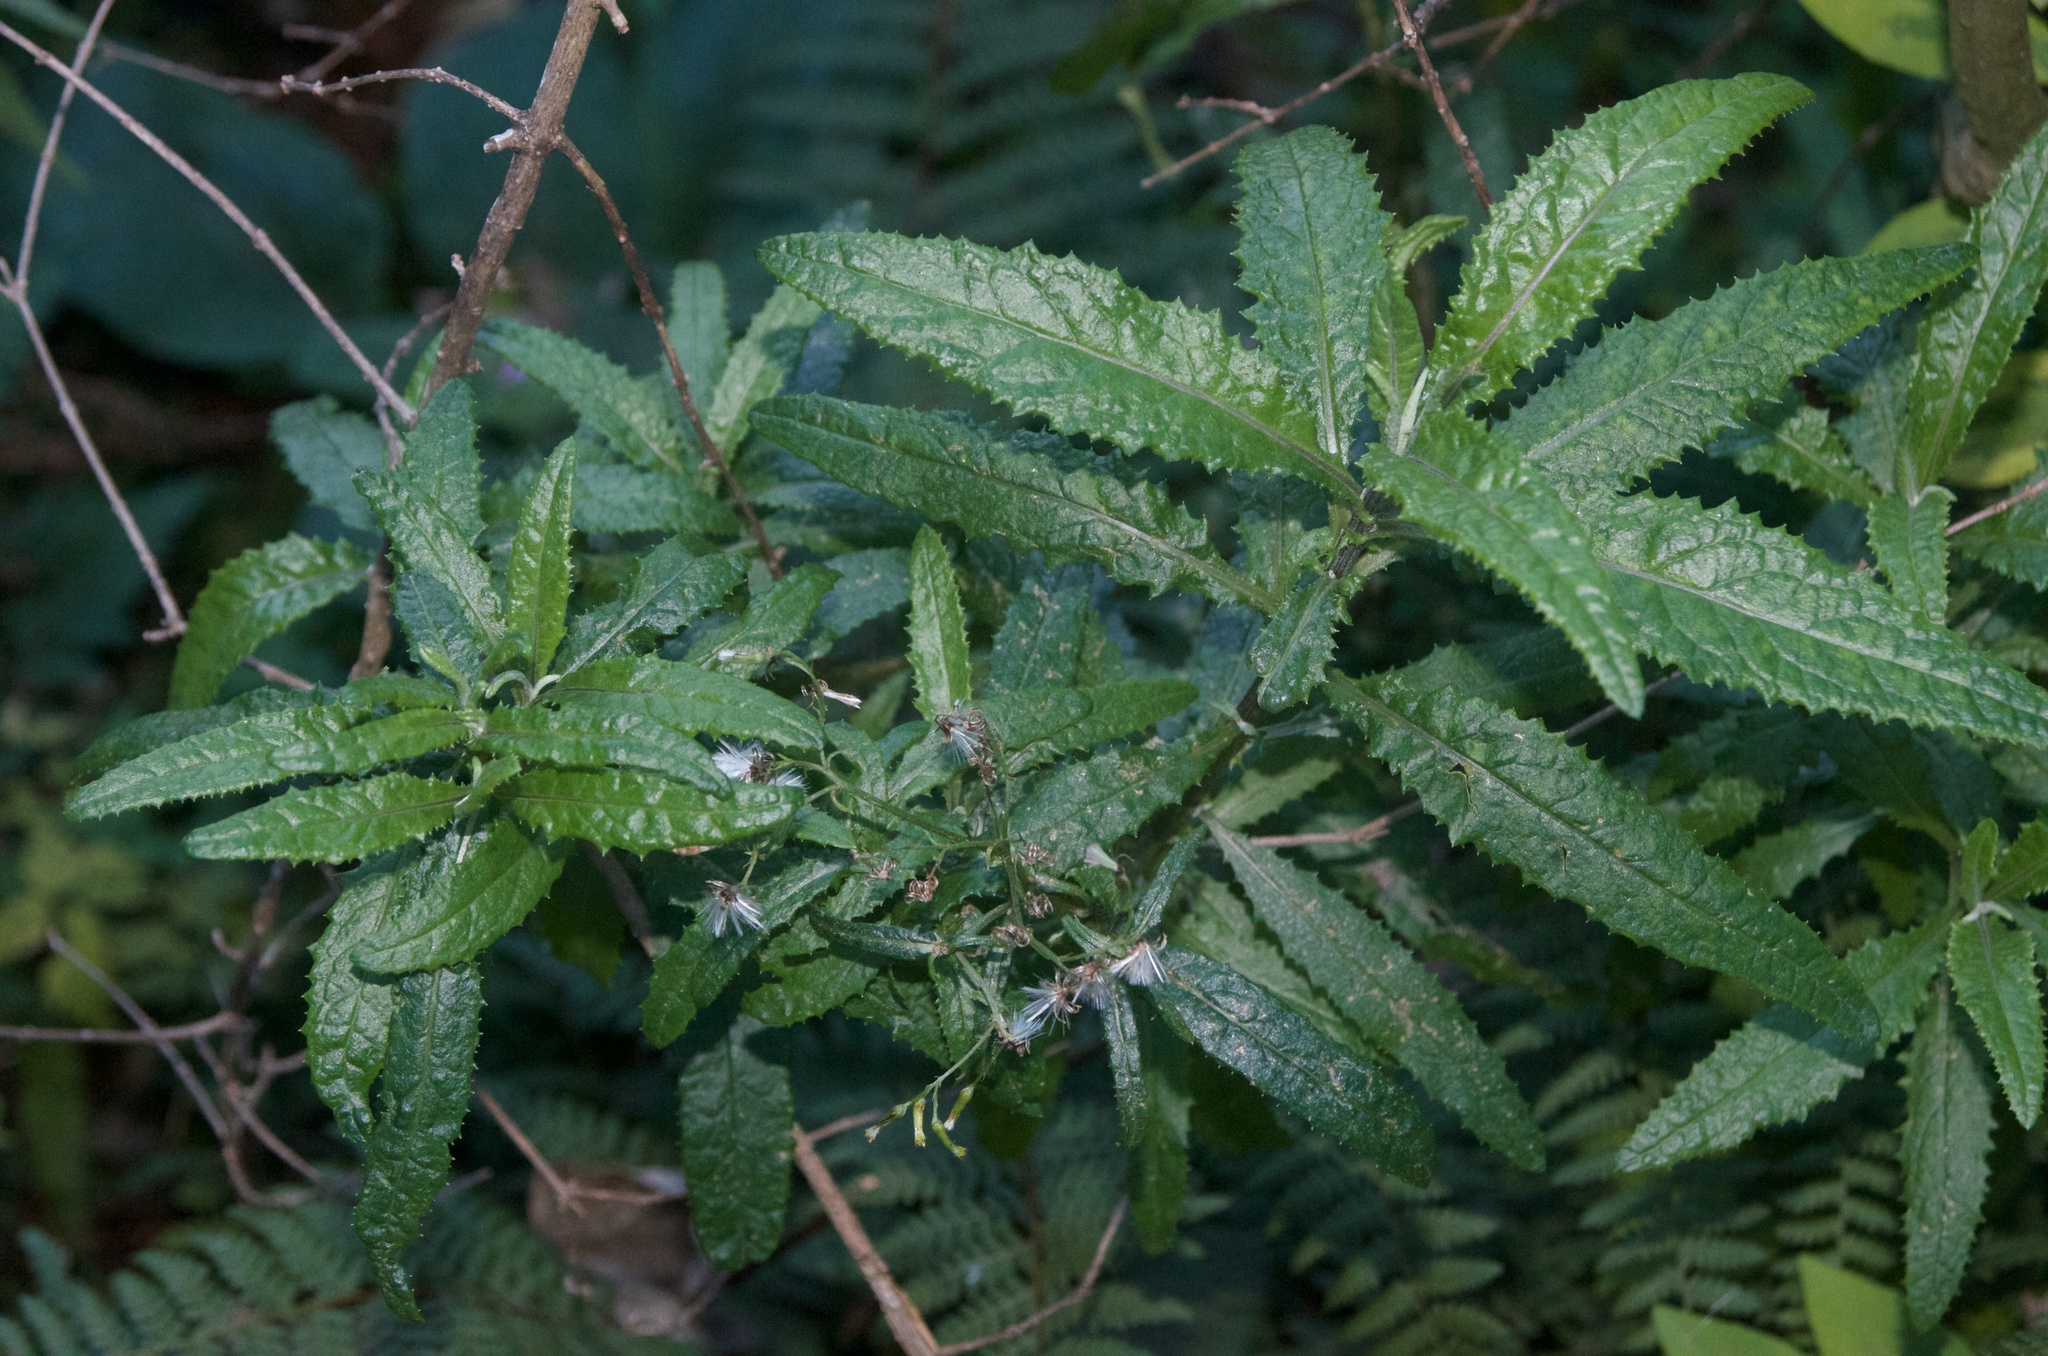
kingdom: Plantae
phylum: Tracheophyta
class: Magnoliopsida
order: Asterales
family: Asteraceae
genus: Senecio
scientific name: Senecio minimus
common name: Toothed fireweed
